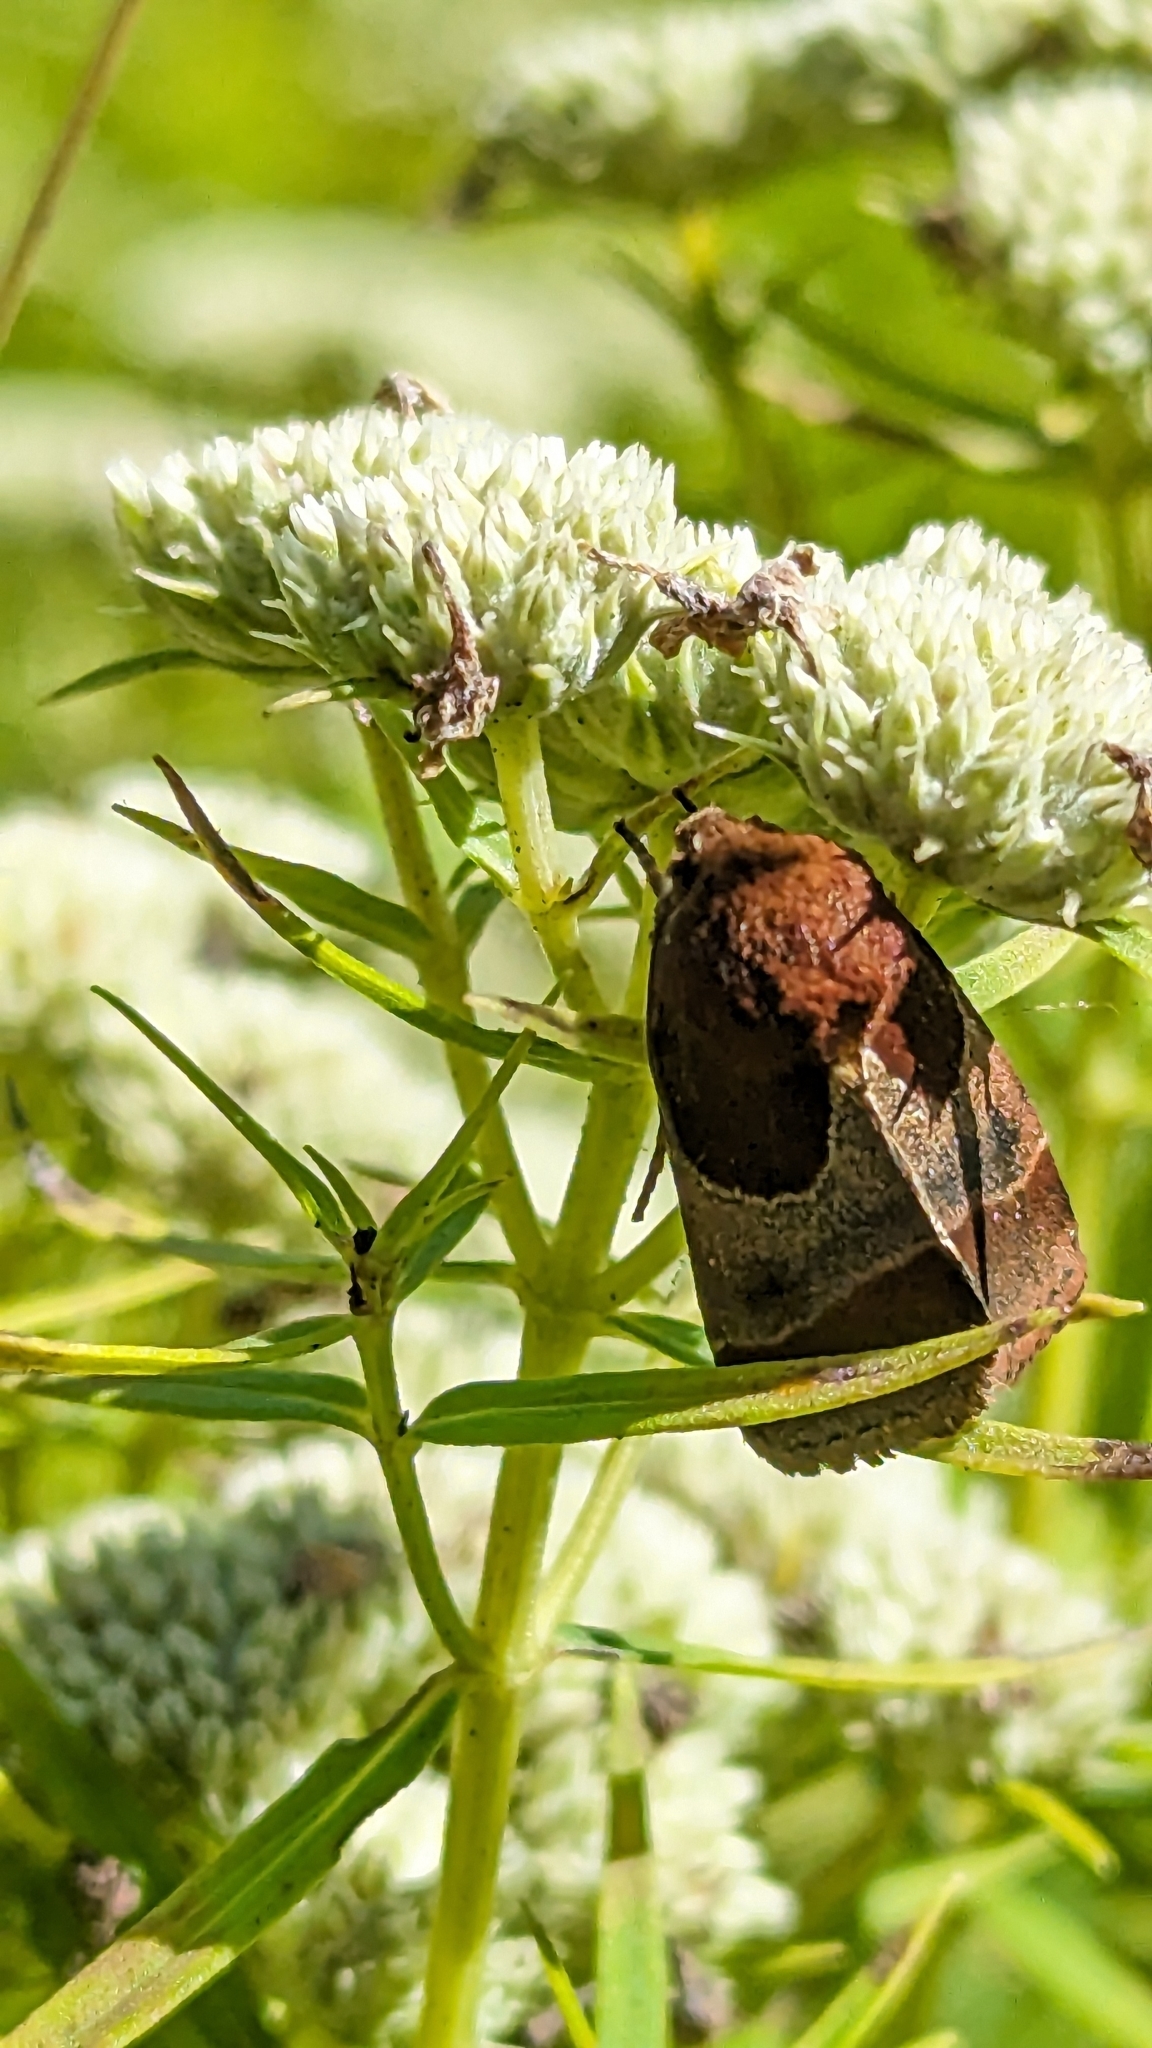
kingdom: Animalia
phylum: Arthropoda
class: Insecta
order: Lepidoptera
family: Noctuidae
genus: Schinia
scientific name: Schinia arcigera
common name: Arcigera flower moth
